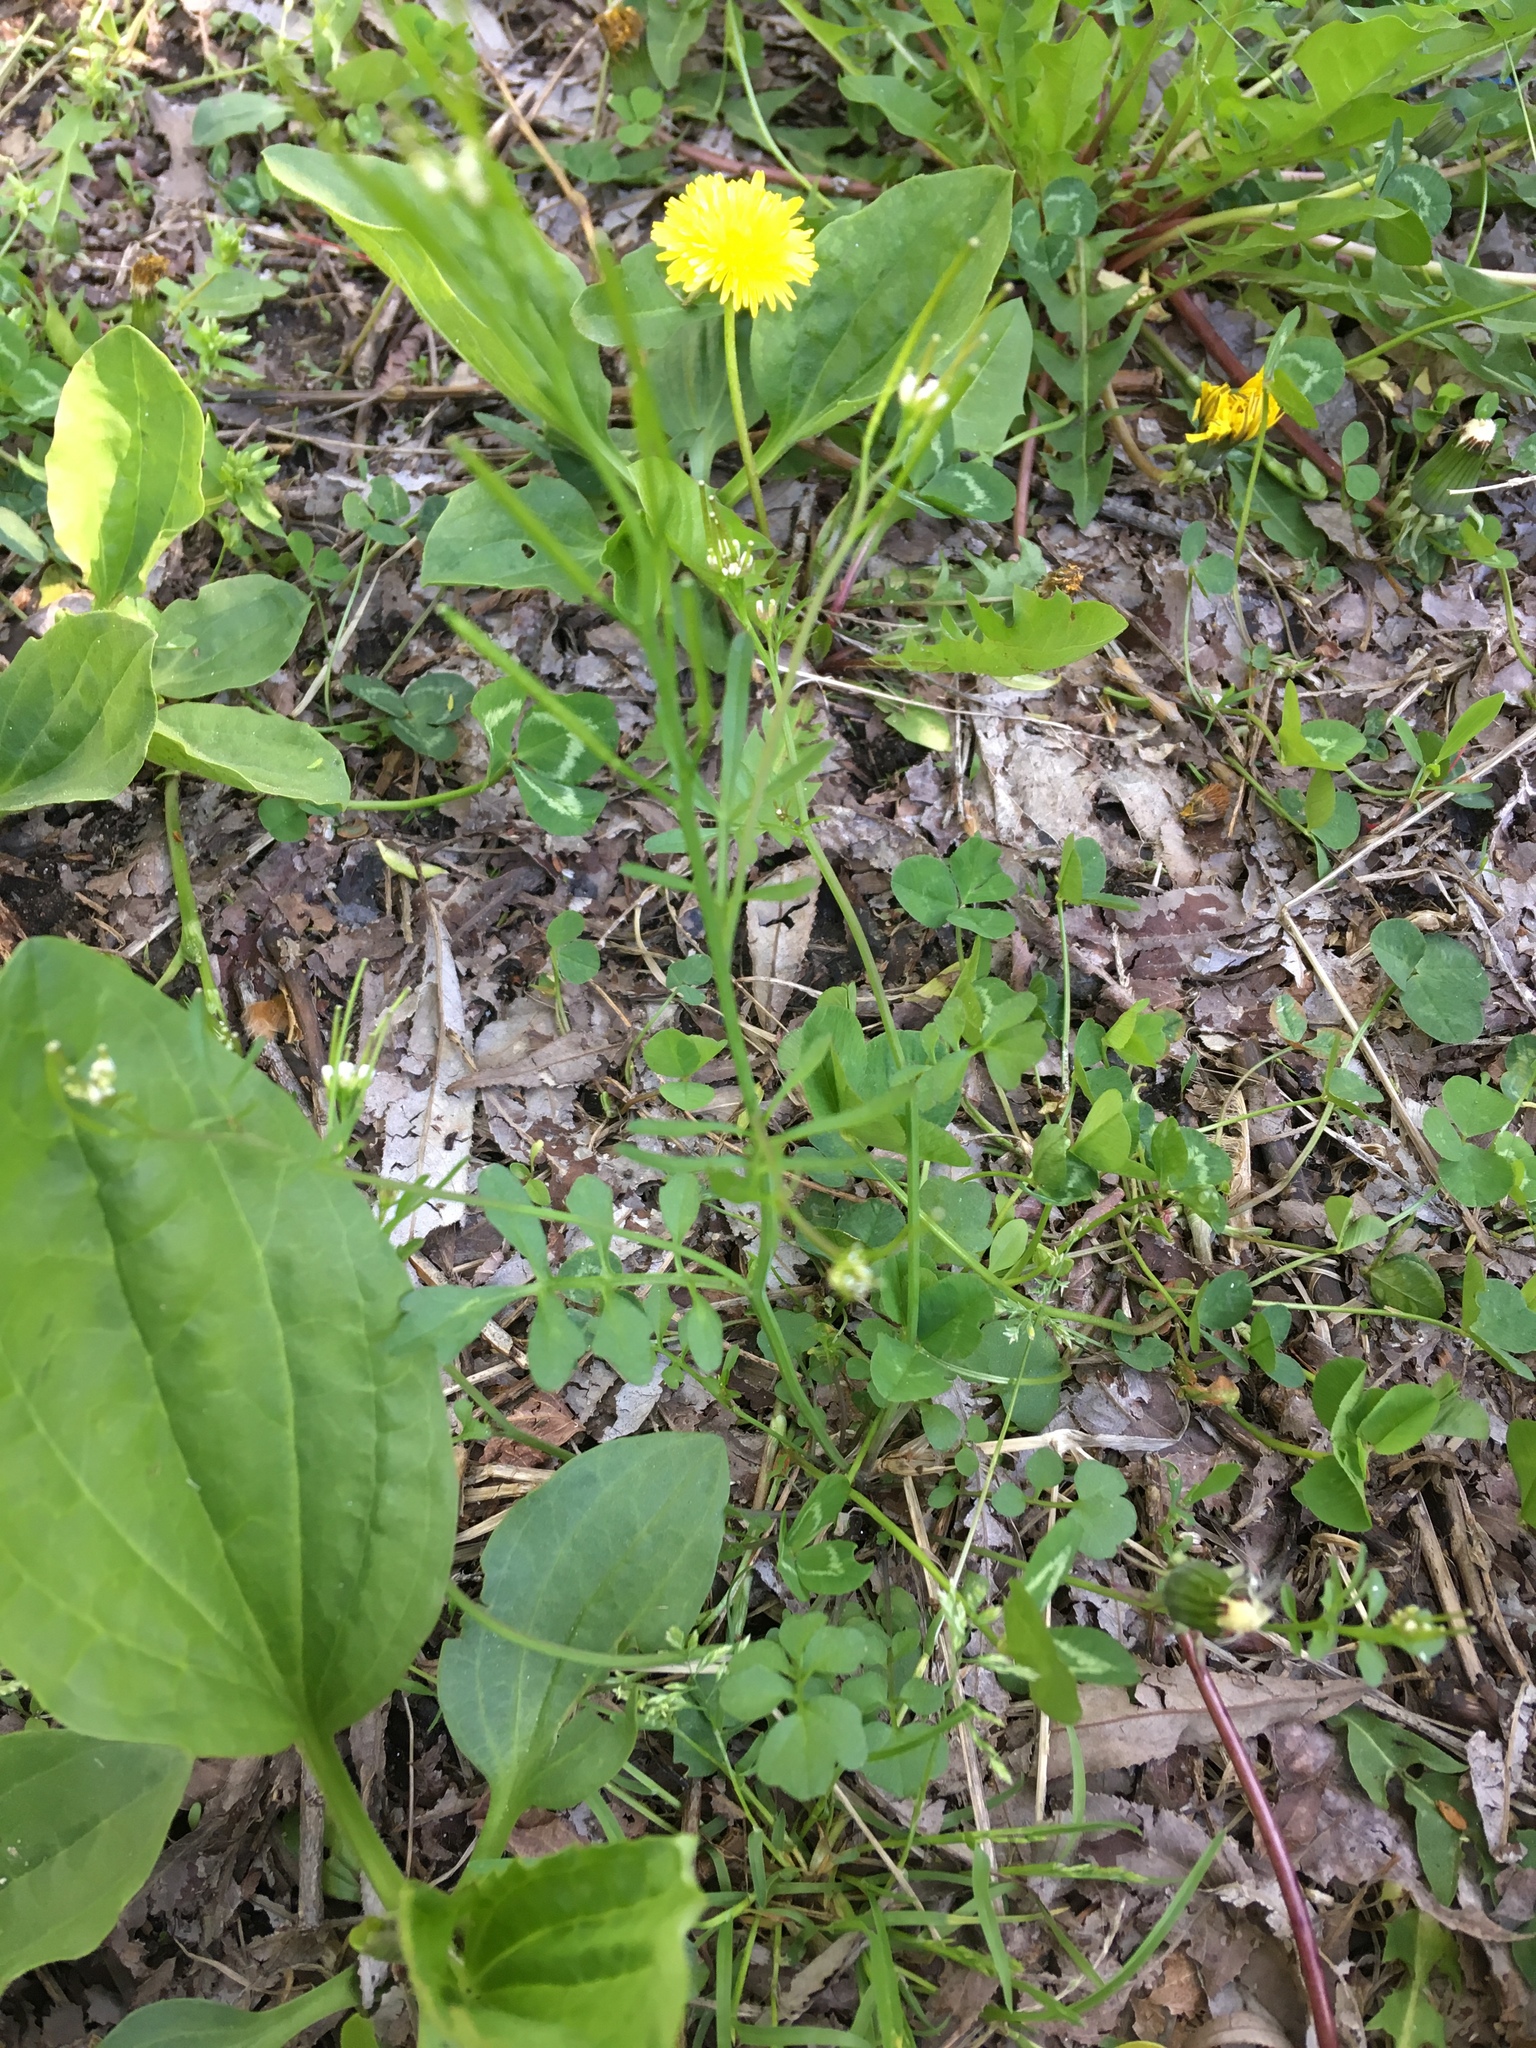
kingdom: Plantae
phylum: Tracheophyta
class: Magnoliopsida
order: Brassicales
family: Brassicaceae
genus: Cardamine
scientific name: Cardamine hirsuta
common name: Hairy bittercress
